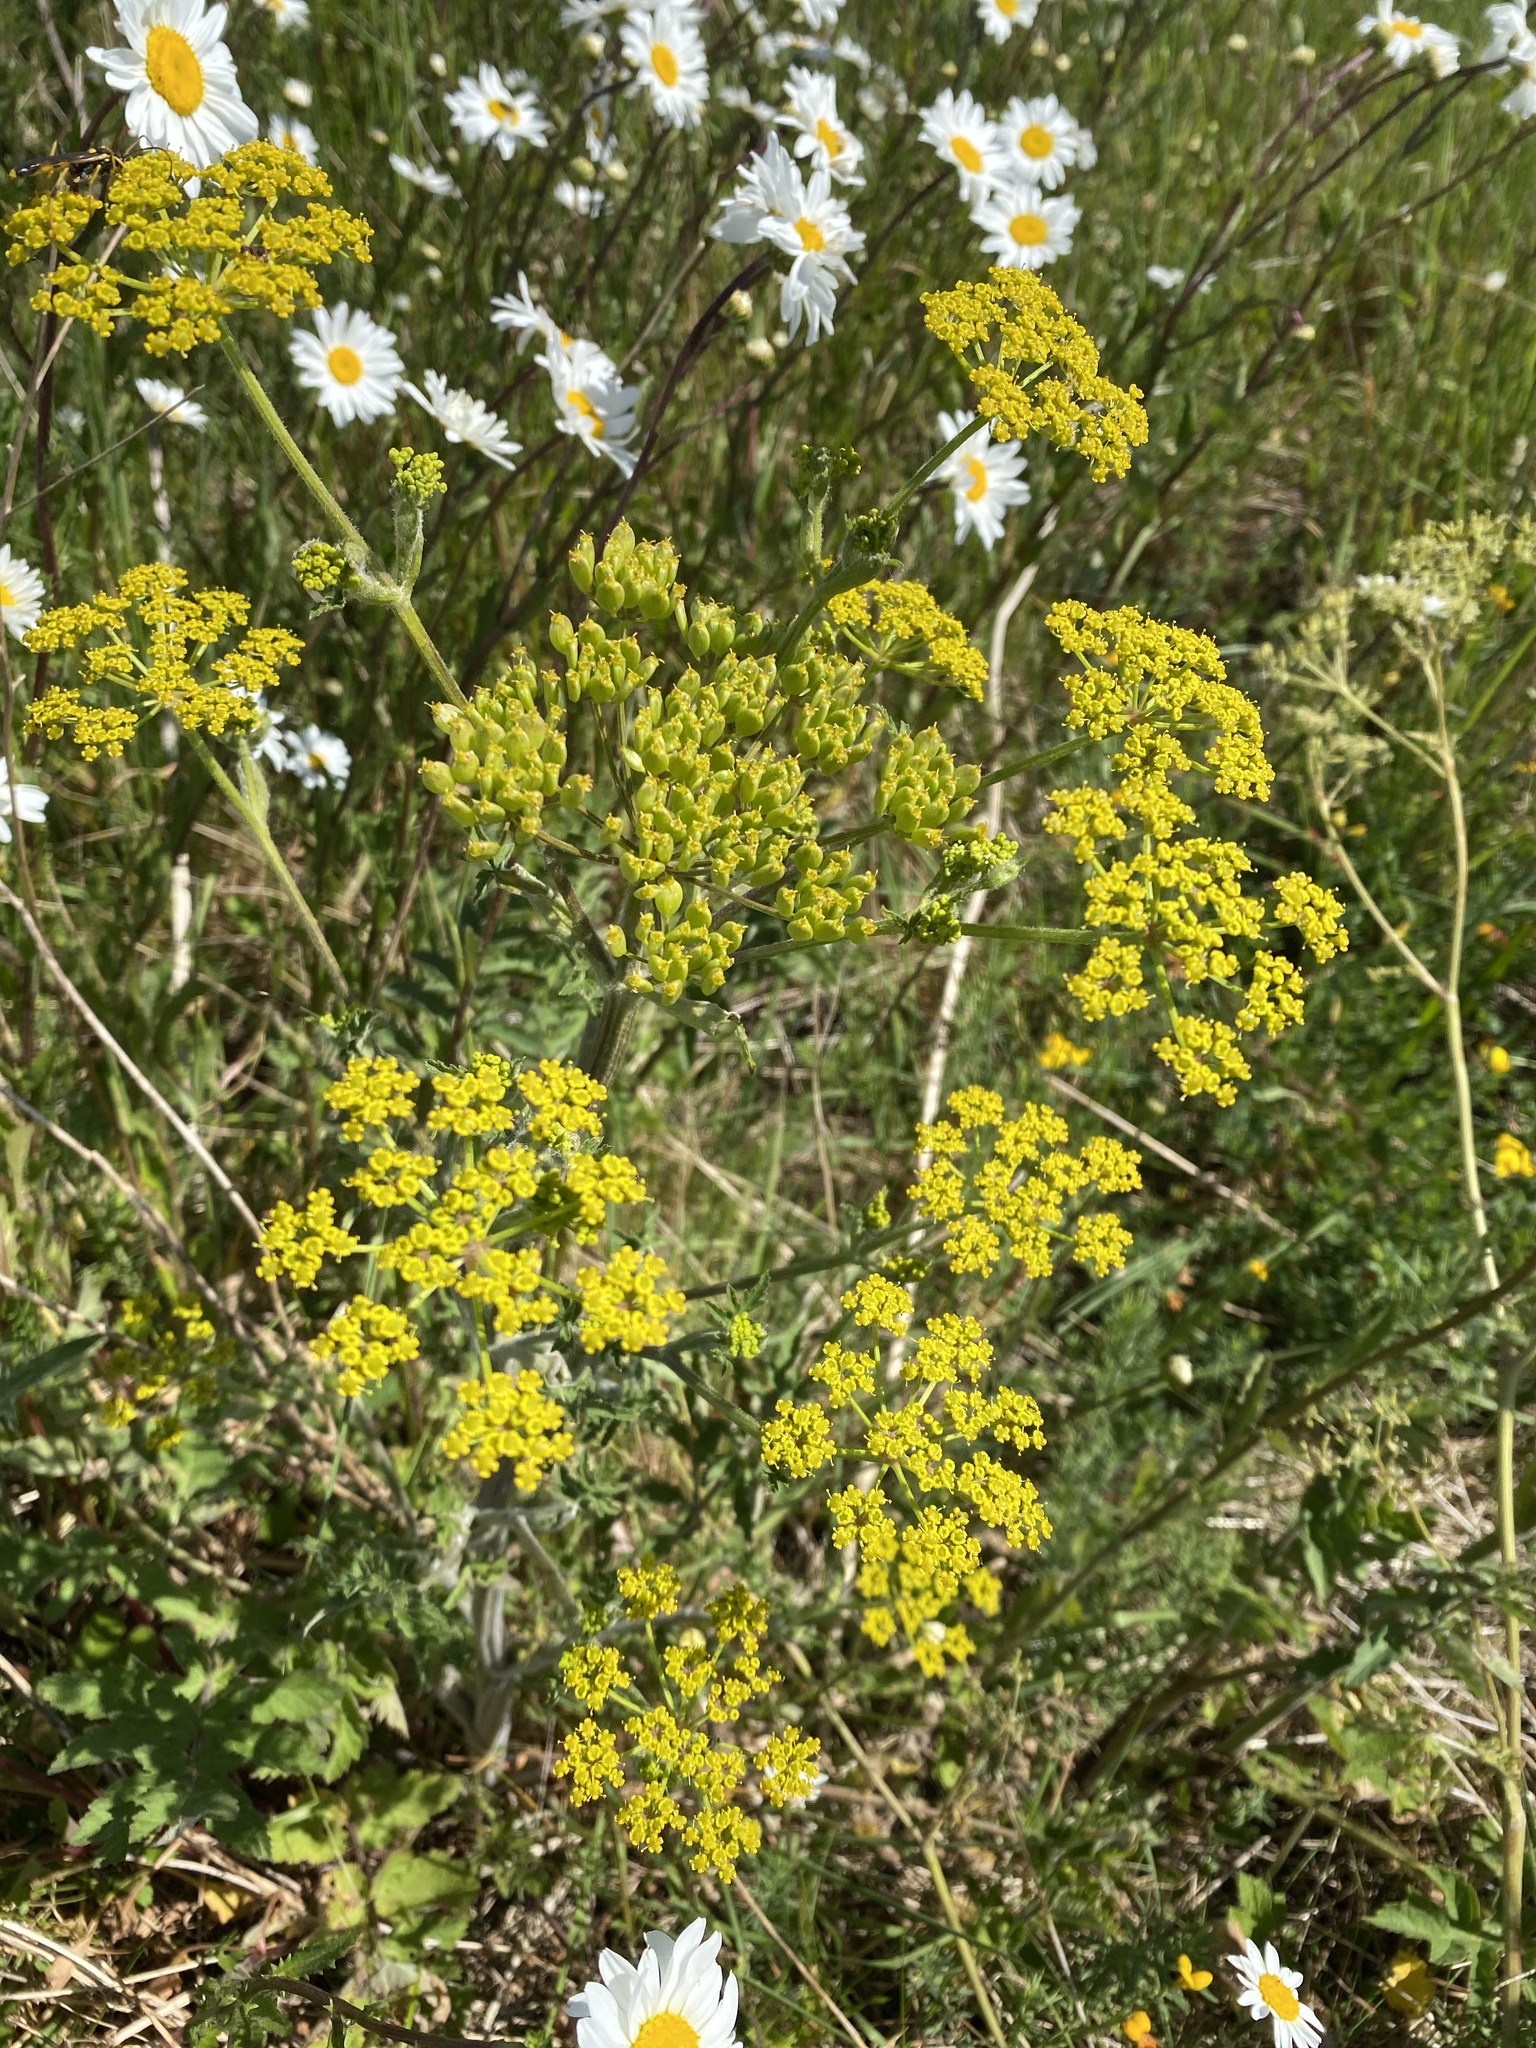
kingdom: Plantae
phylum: Tracheophyta
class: Magnoliopsida
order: Apiales
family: Apiaceae
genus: Pastinaca
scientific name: Pastinaca sativa
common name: Wild parsnip
